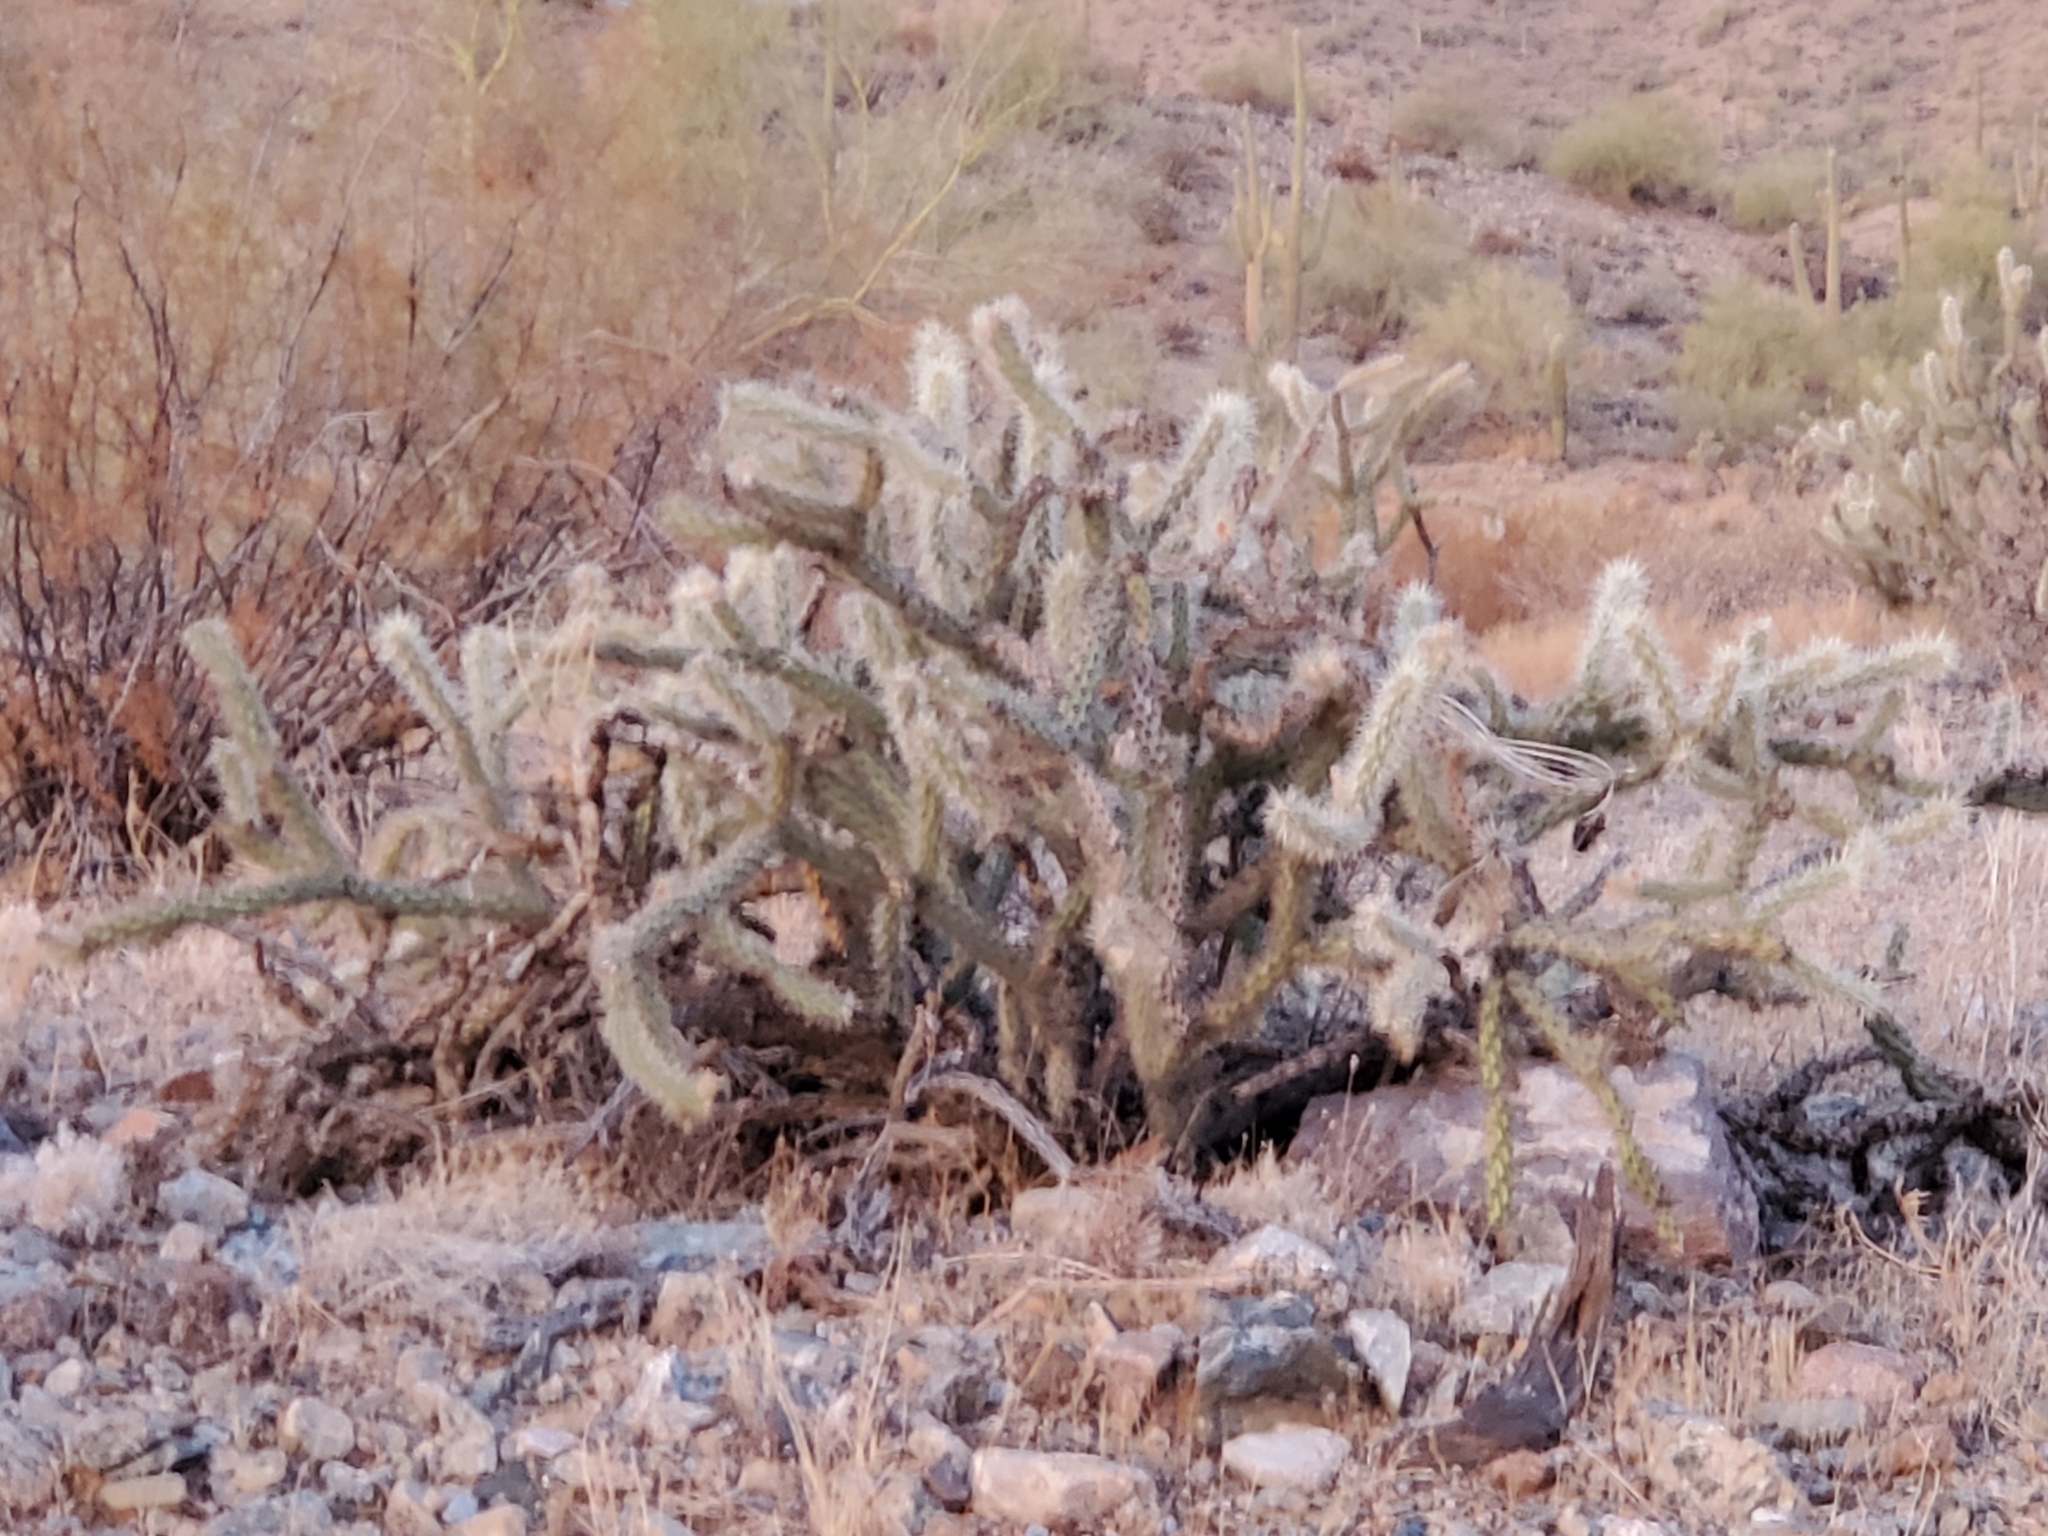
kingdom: Plantae
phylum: Tracheophyta
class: Magnoliopsida
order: Caryophyllales
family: Cactaceae
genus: Cylindropuntia
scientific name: Cylindropuntia acanthocarpa
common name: Buckhorn cholla
